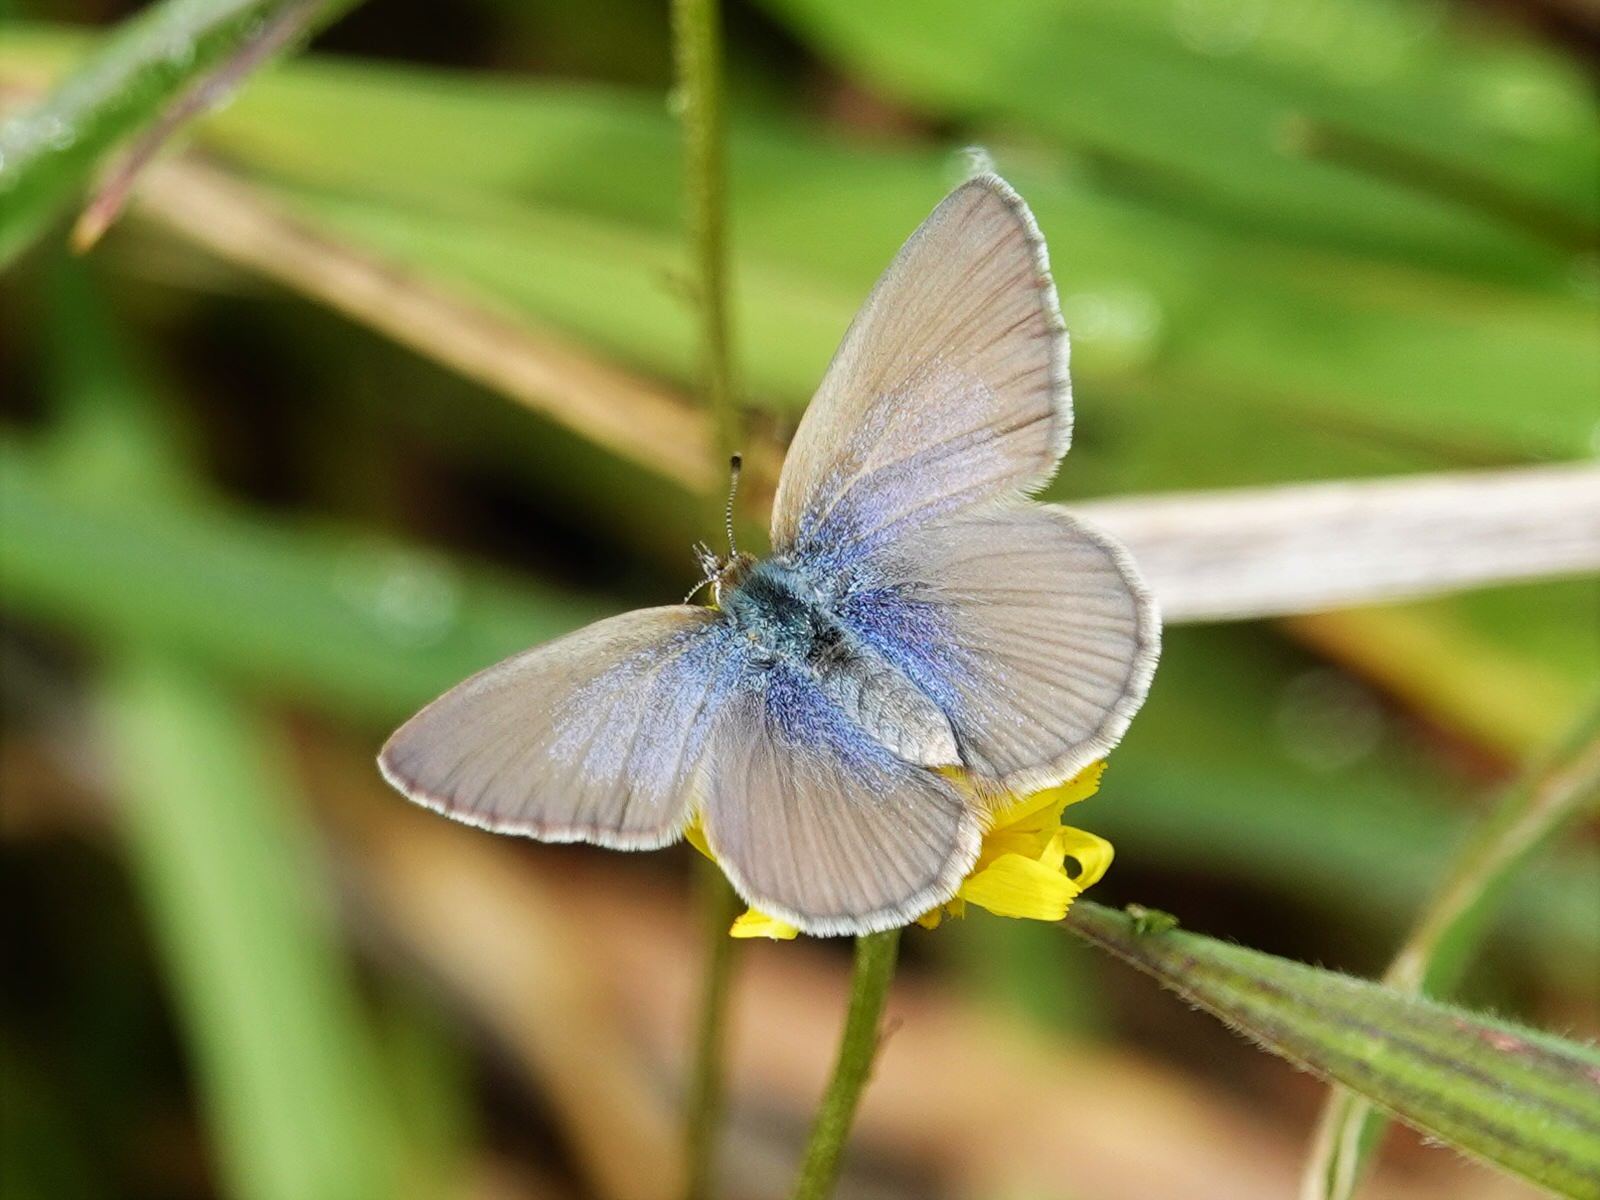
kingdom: Animalia
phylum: Arthropoda
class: Insecta
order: Lepidoptera
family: Lycaenidae
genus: Zizina
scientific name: Zizina labradus
